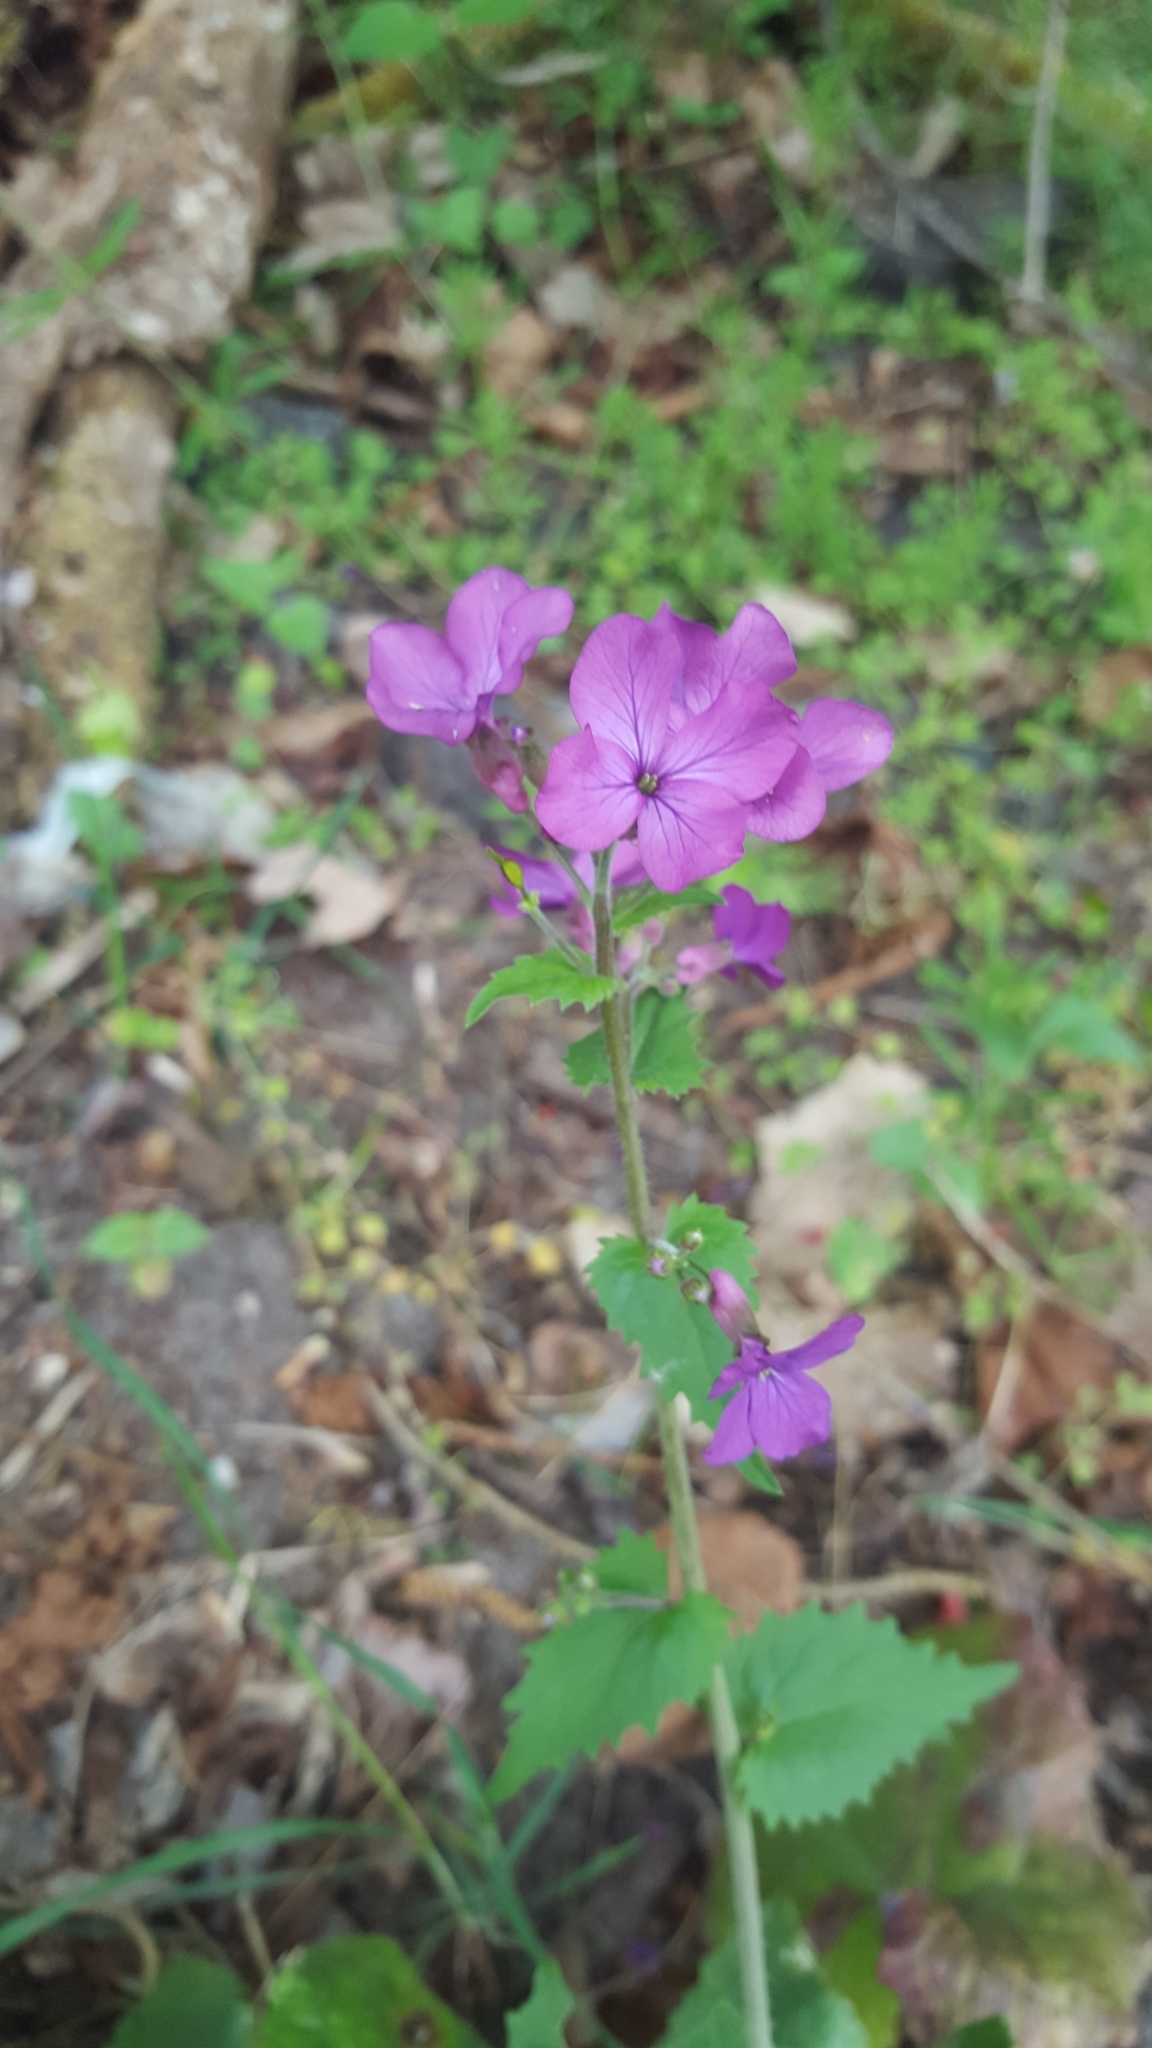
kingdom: Plantae
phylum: Tracheophyta
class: Magnoliopsida
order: Brassicales
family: Brassicaceae
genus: Lunaria
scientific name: Lunaria annua
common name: Honesty
